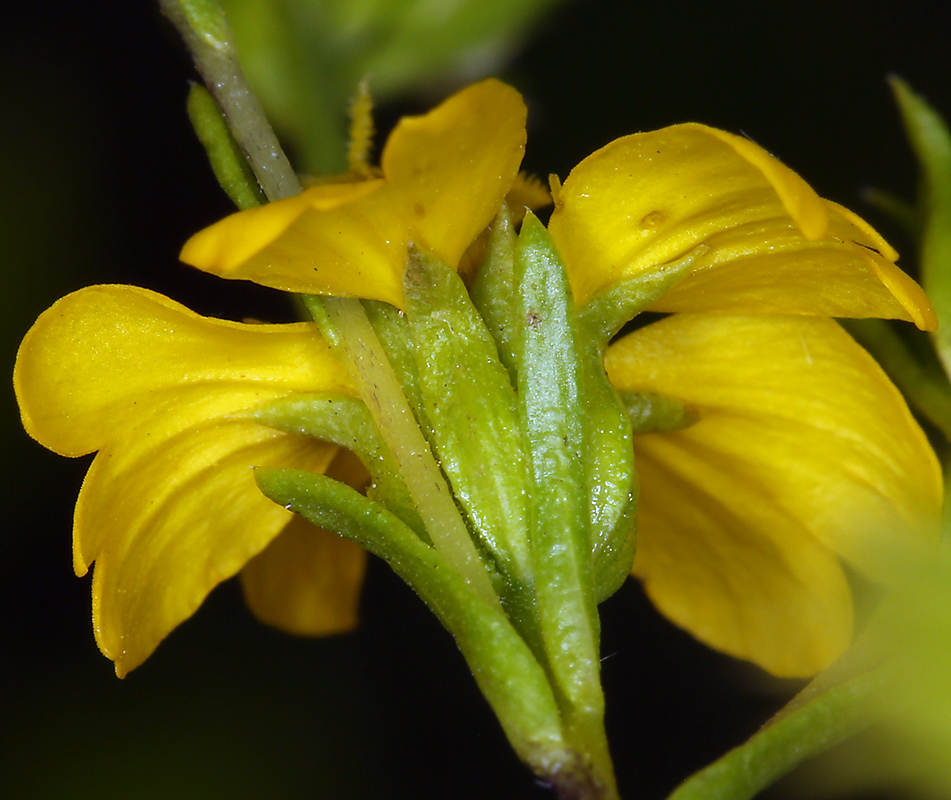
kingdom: Plantae
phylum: Tracheophyta
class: Magnoliopsida
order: Asterales
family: Asteraceae
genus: Deinandra
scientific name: Deinandra fasciculata
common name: Clustered tarweed
